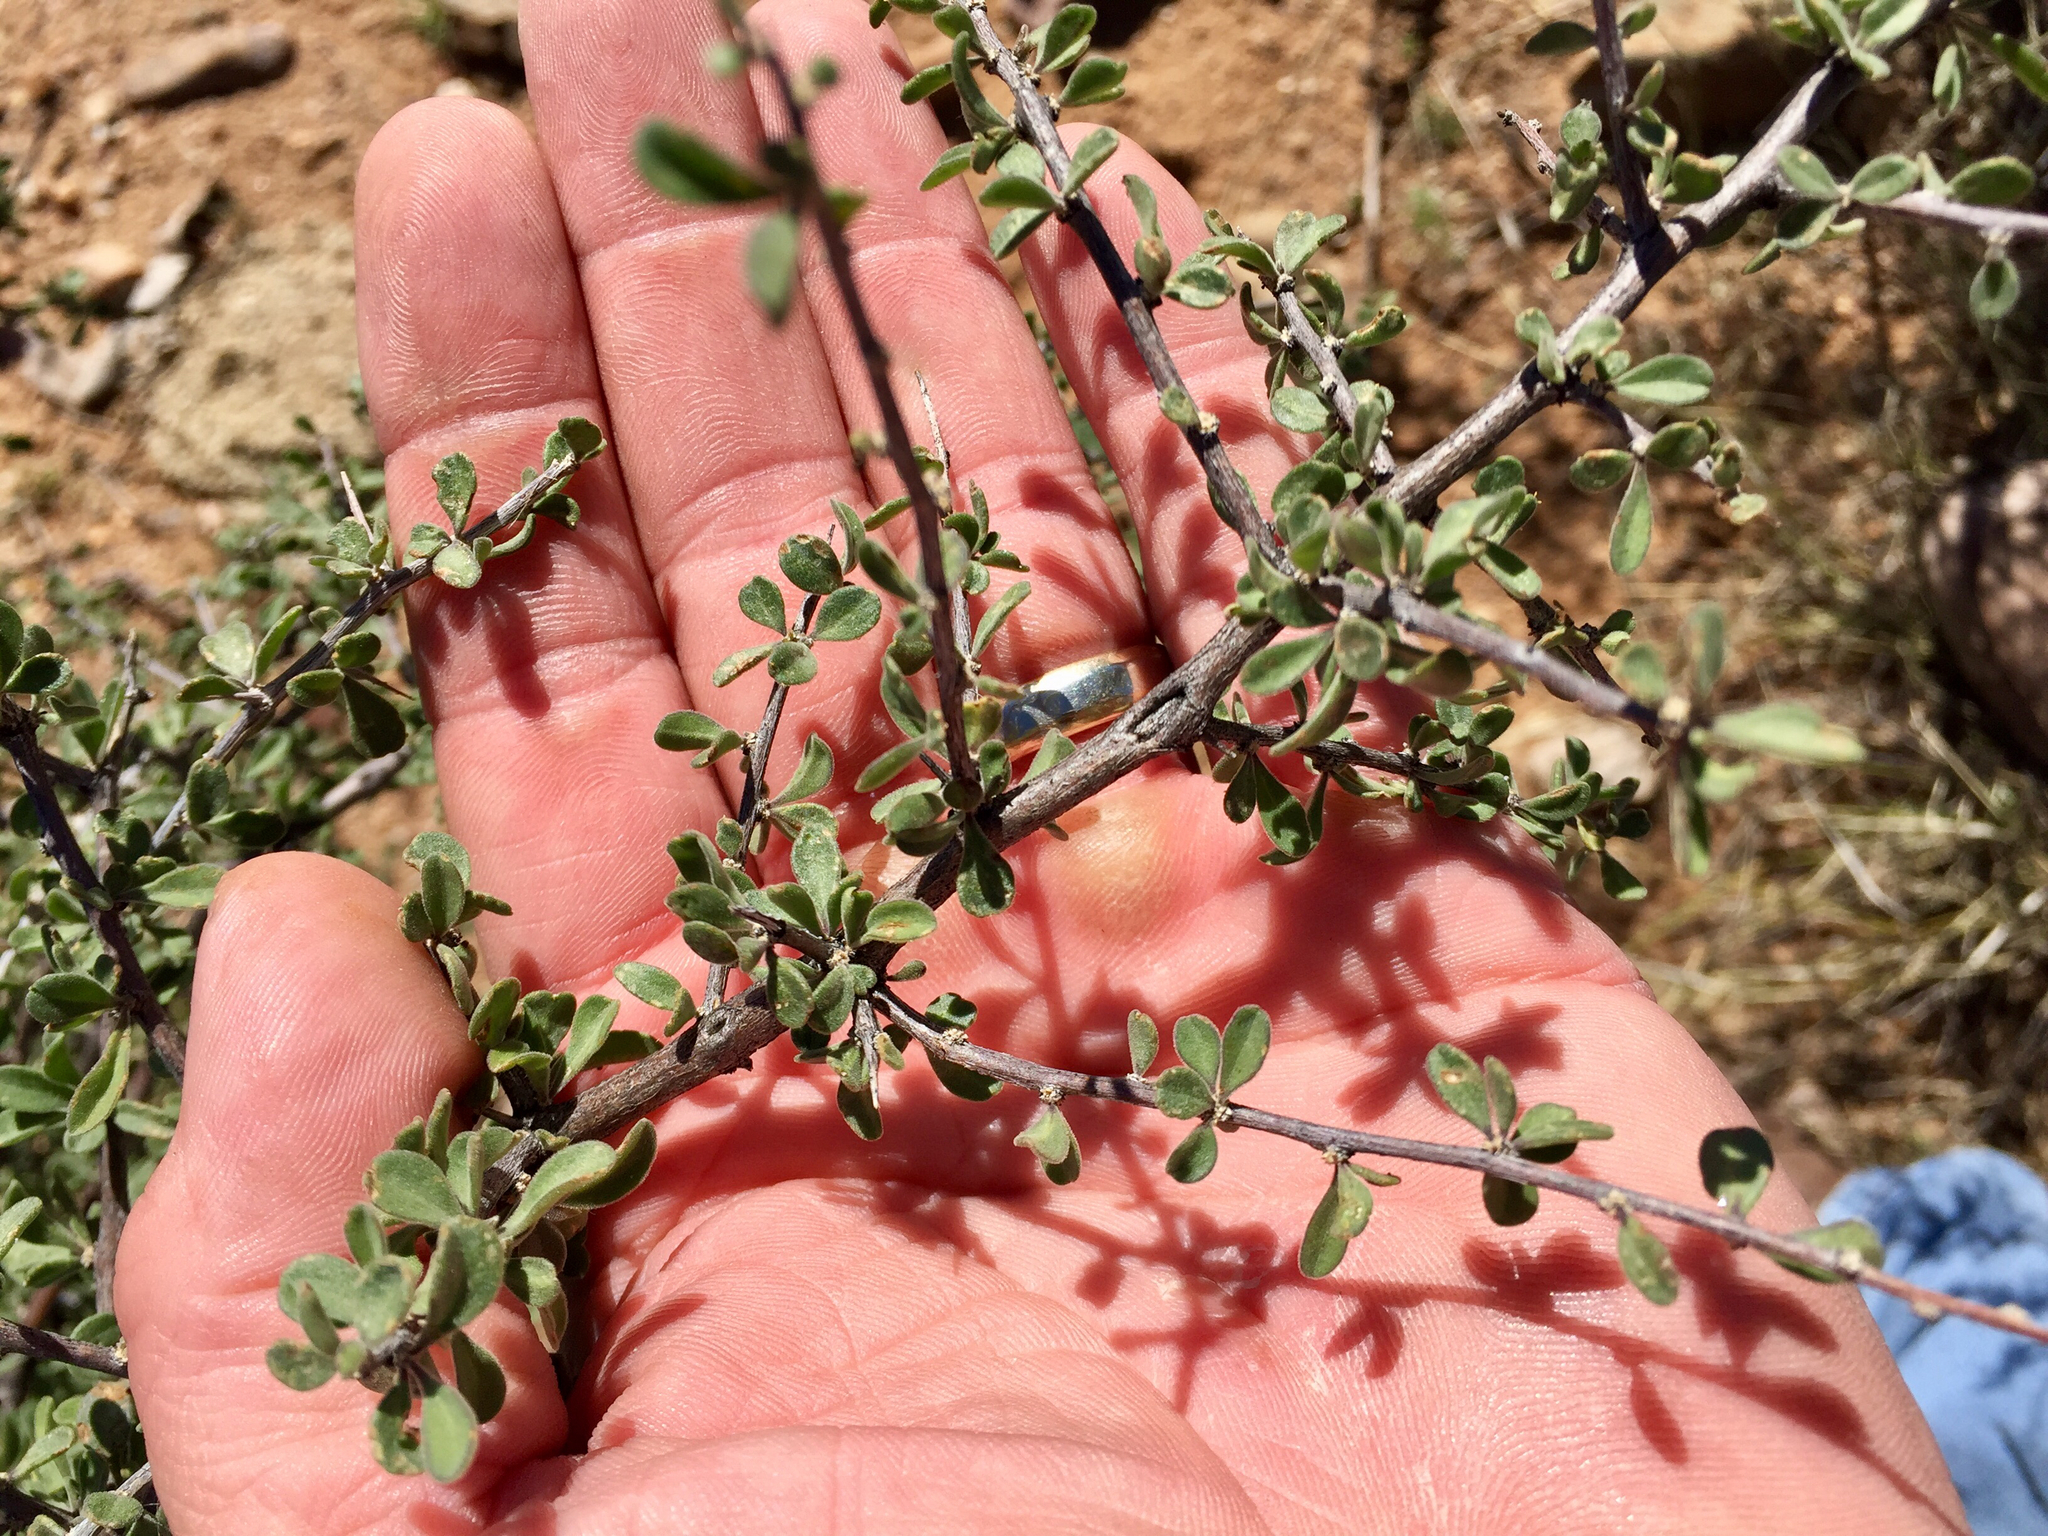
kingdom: Plantae
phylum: Tracheophyta
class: Magnoliopsida
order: Solanales
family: Solanaceae
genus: Lycium
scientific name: Lycium exsertum
